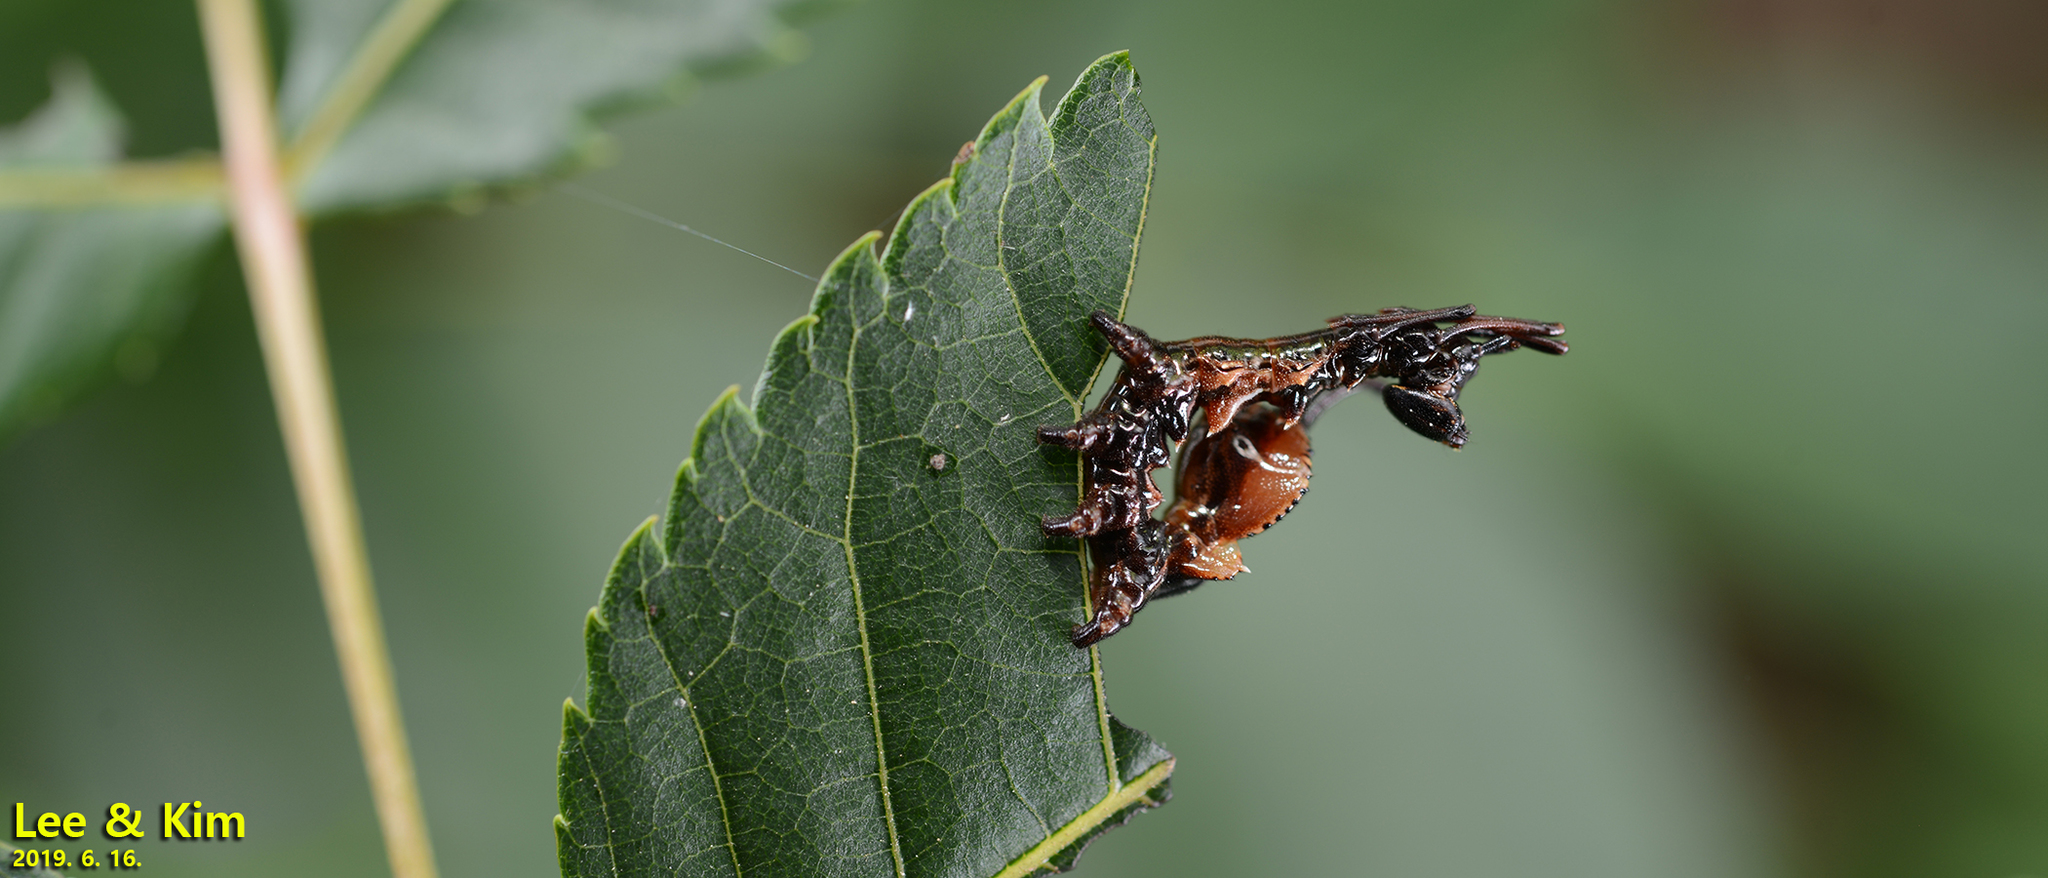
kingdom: Animalia
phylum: Arthropoda
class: Insecta
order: Lepidoptera
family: Notodontidae
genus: Stauropus
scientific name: Stauropus basalis
